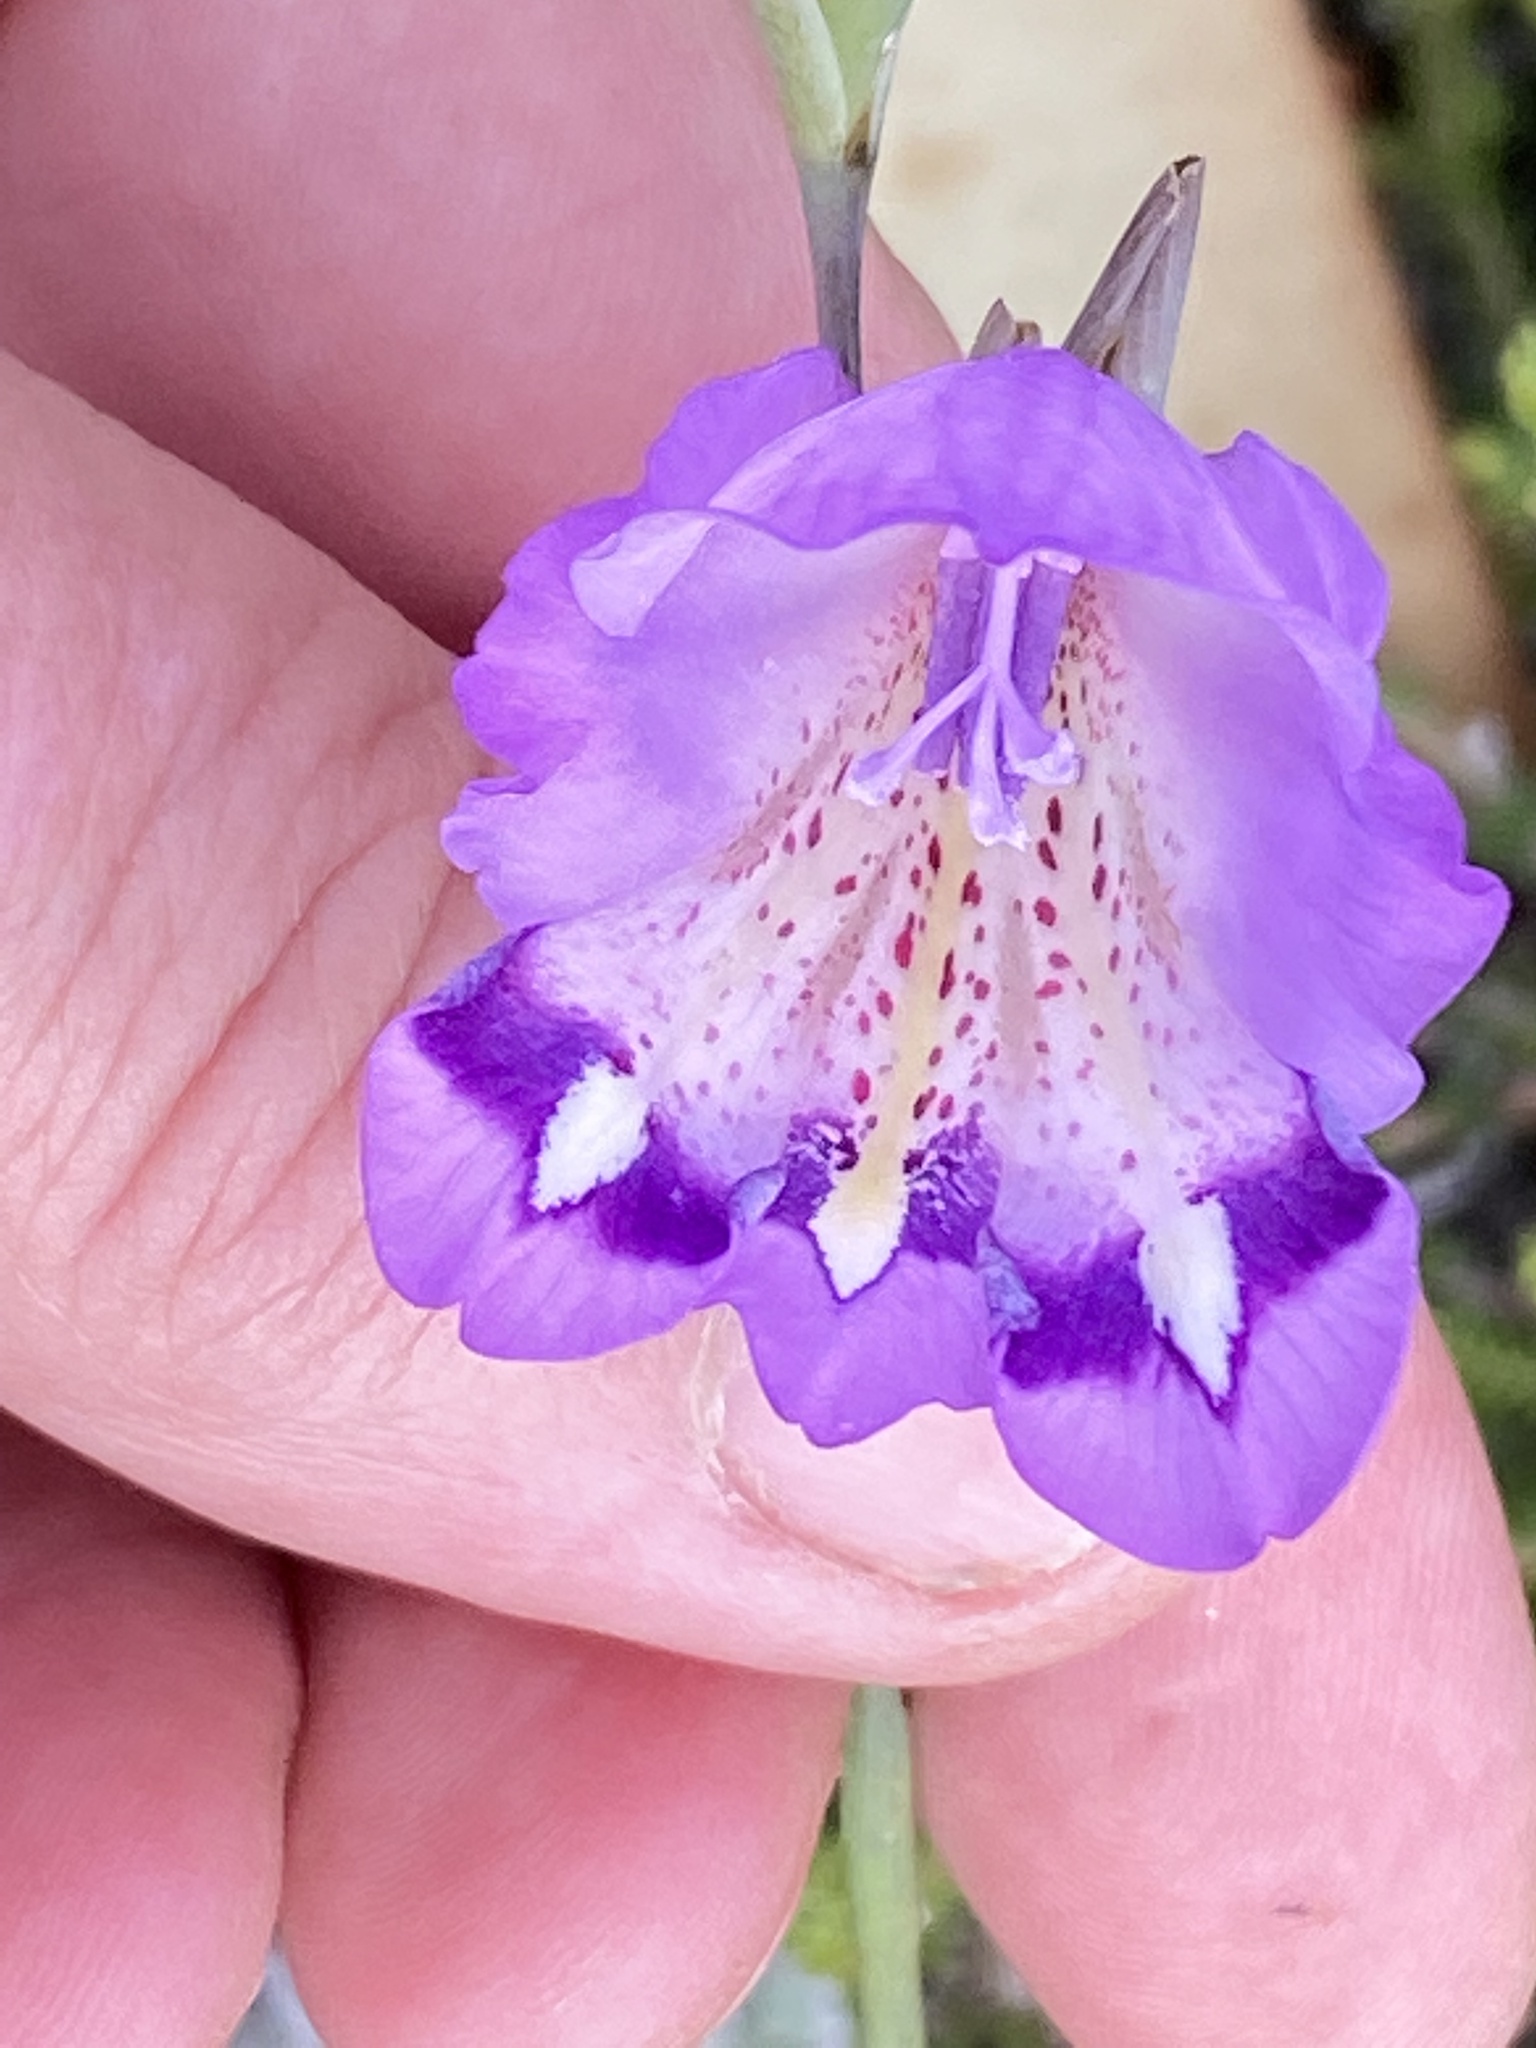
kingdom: Plantae
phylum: Tracheophyta
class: Liliopsida
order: Asparagales
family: Iridaceae
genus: Gladiolus
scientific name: Gladiolus rogersii
